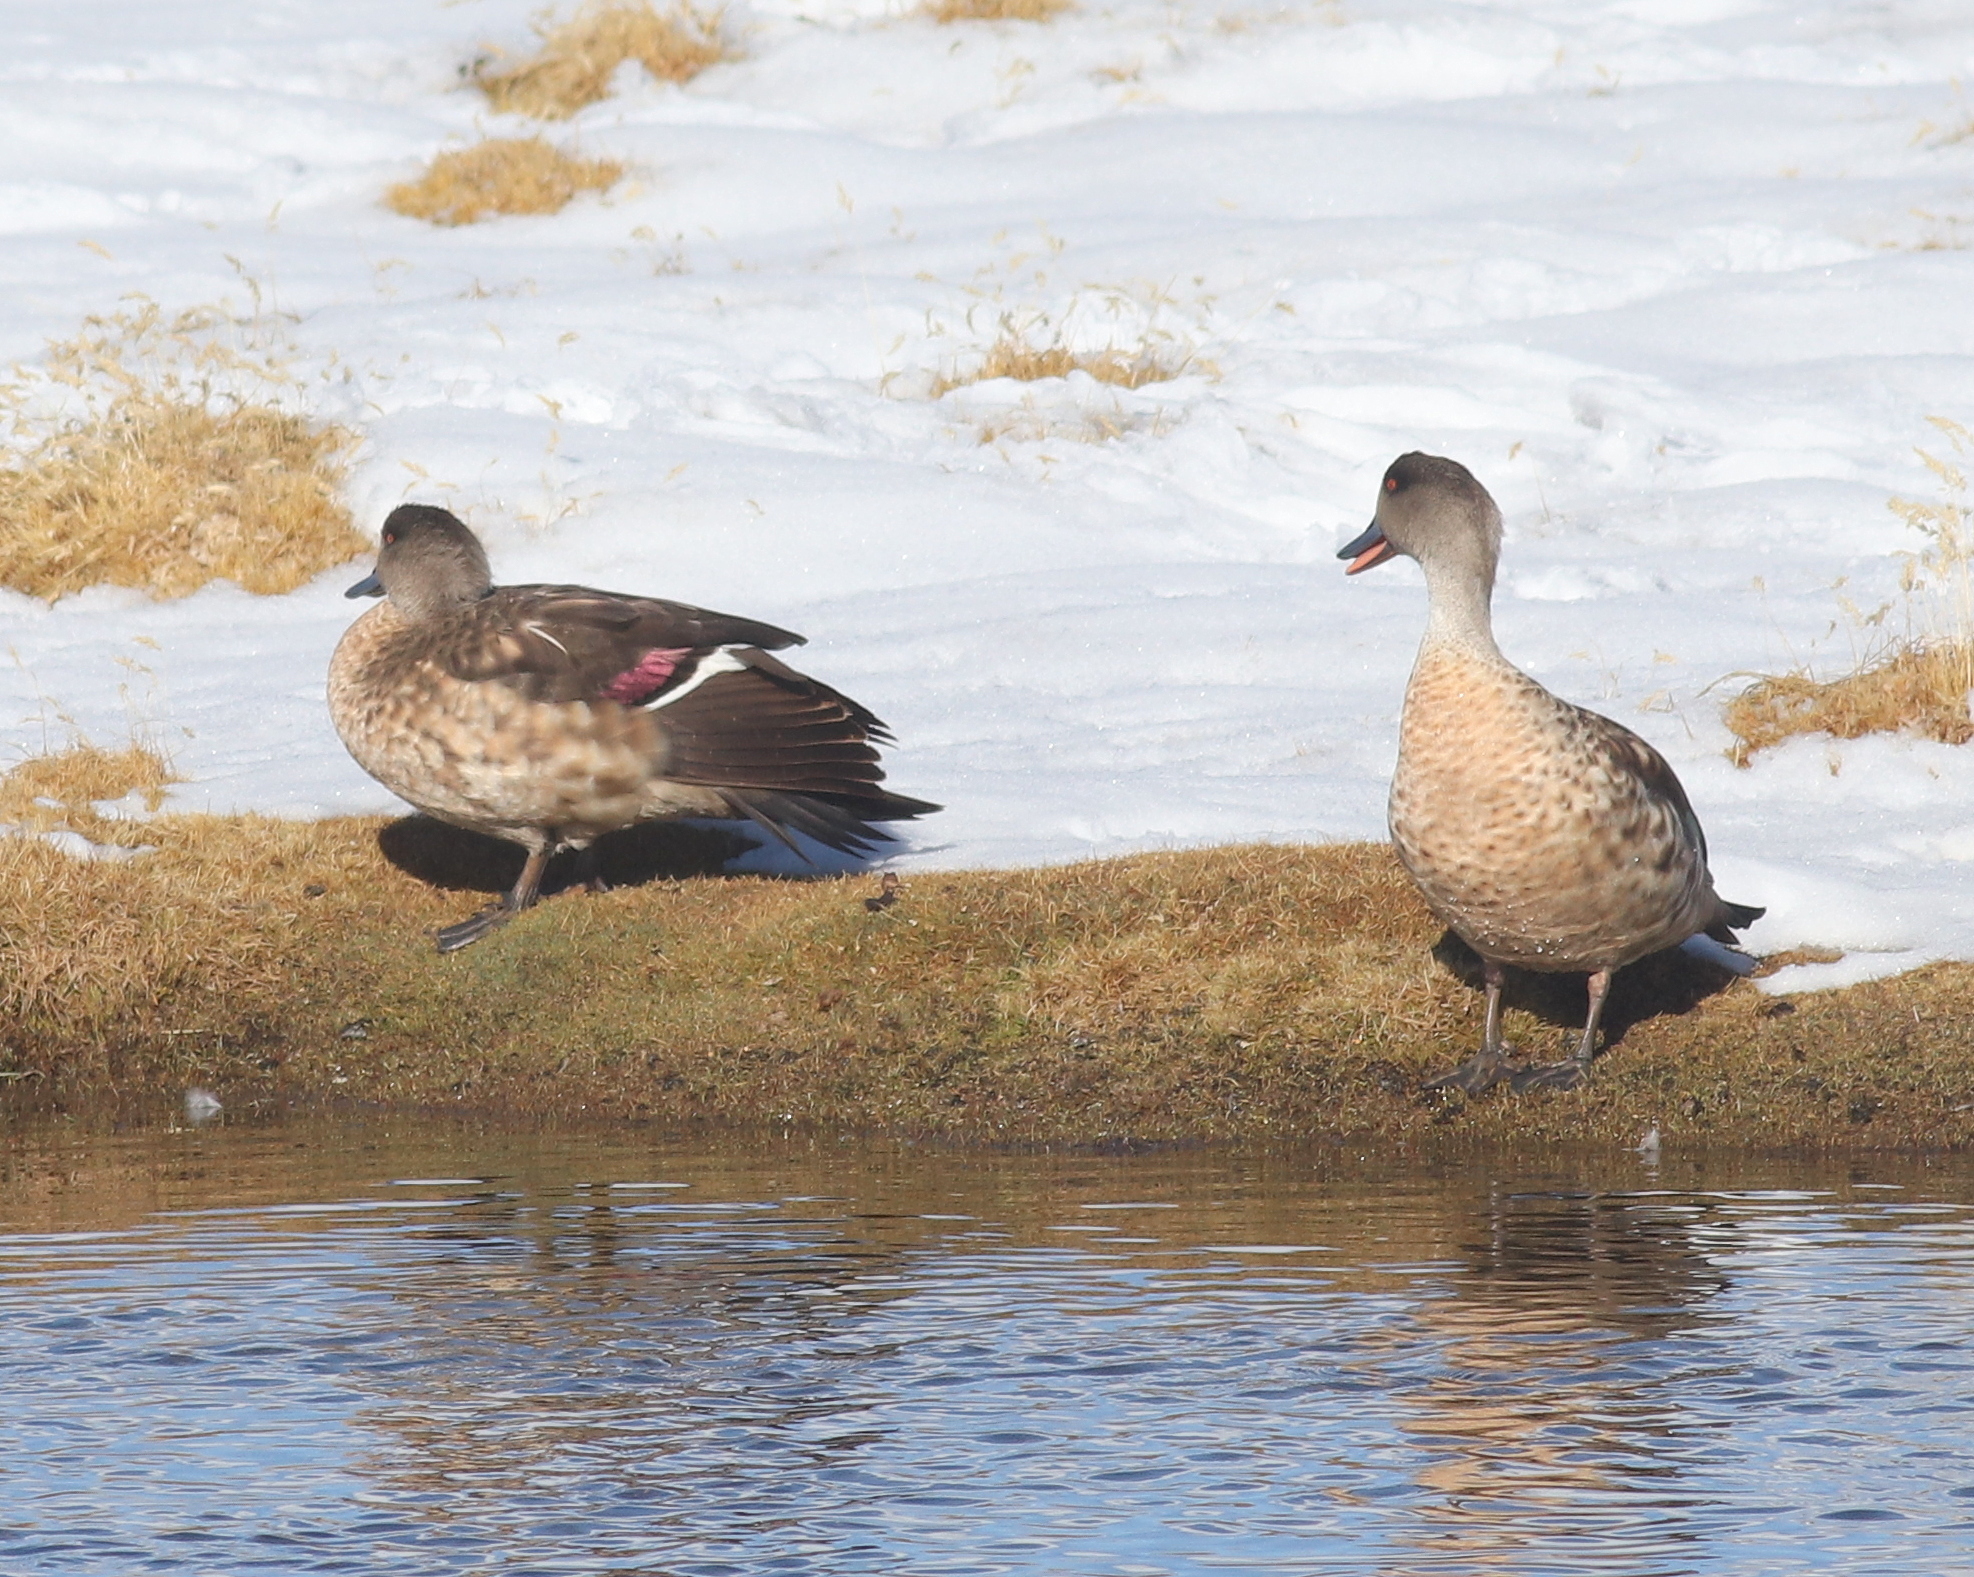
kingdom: Animalia
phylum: Chordata
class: Aves
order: Anseriformes
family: Anatidae
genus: Lophonetta
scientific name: Lophonetta specularioides
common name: Crested duck
